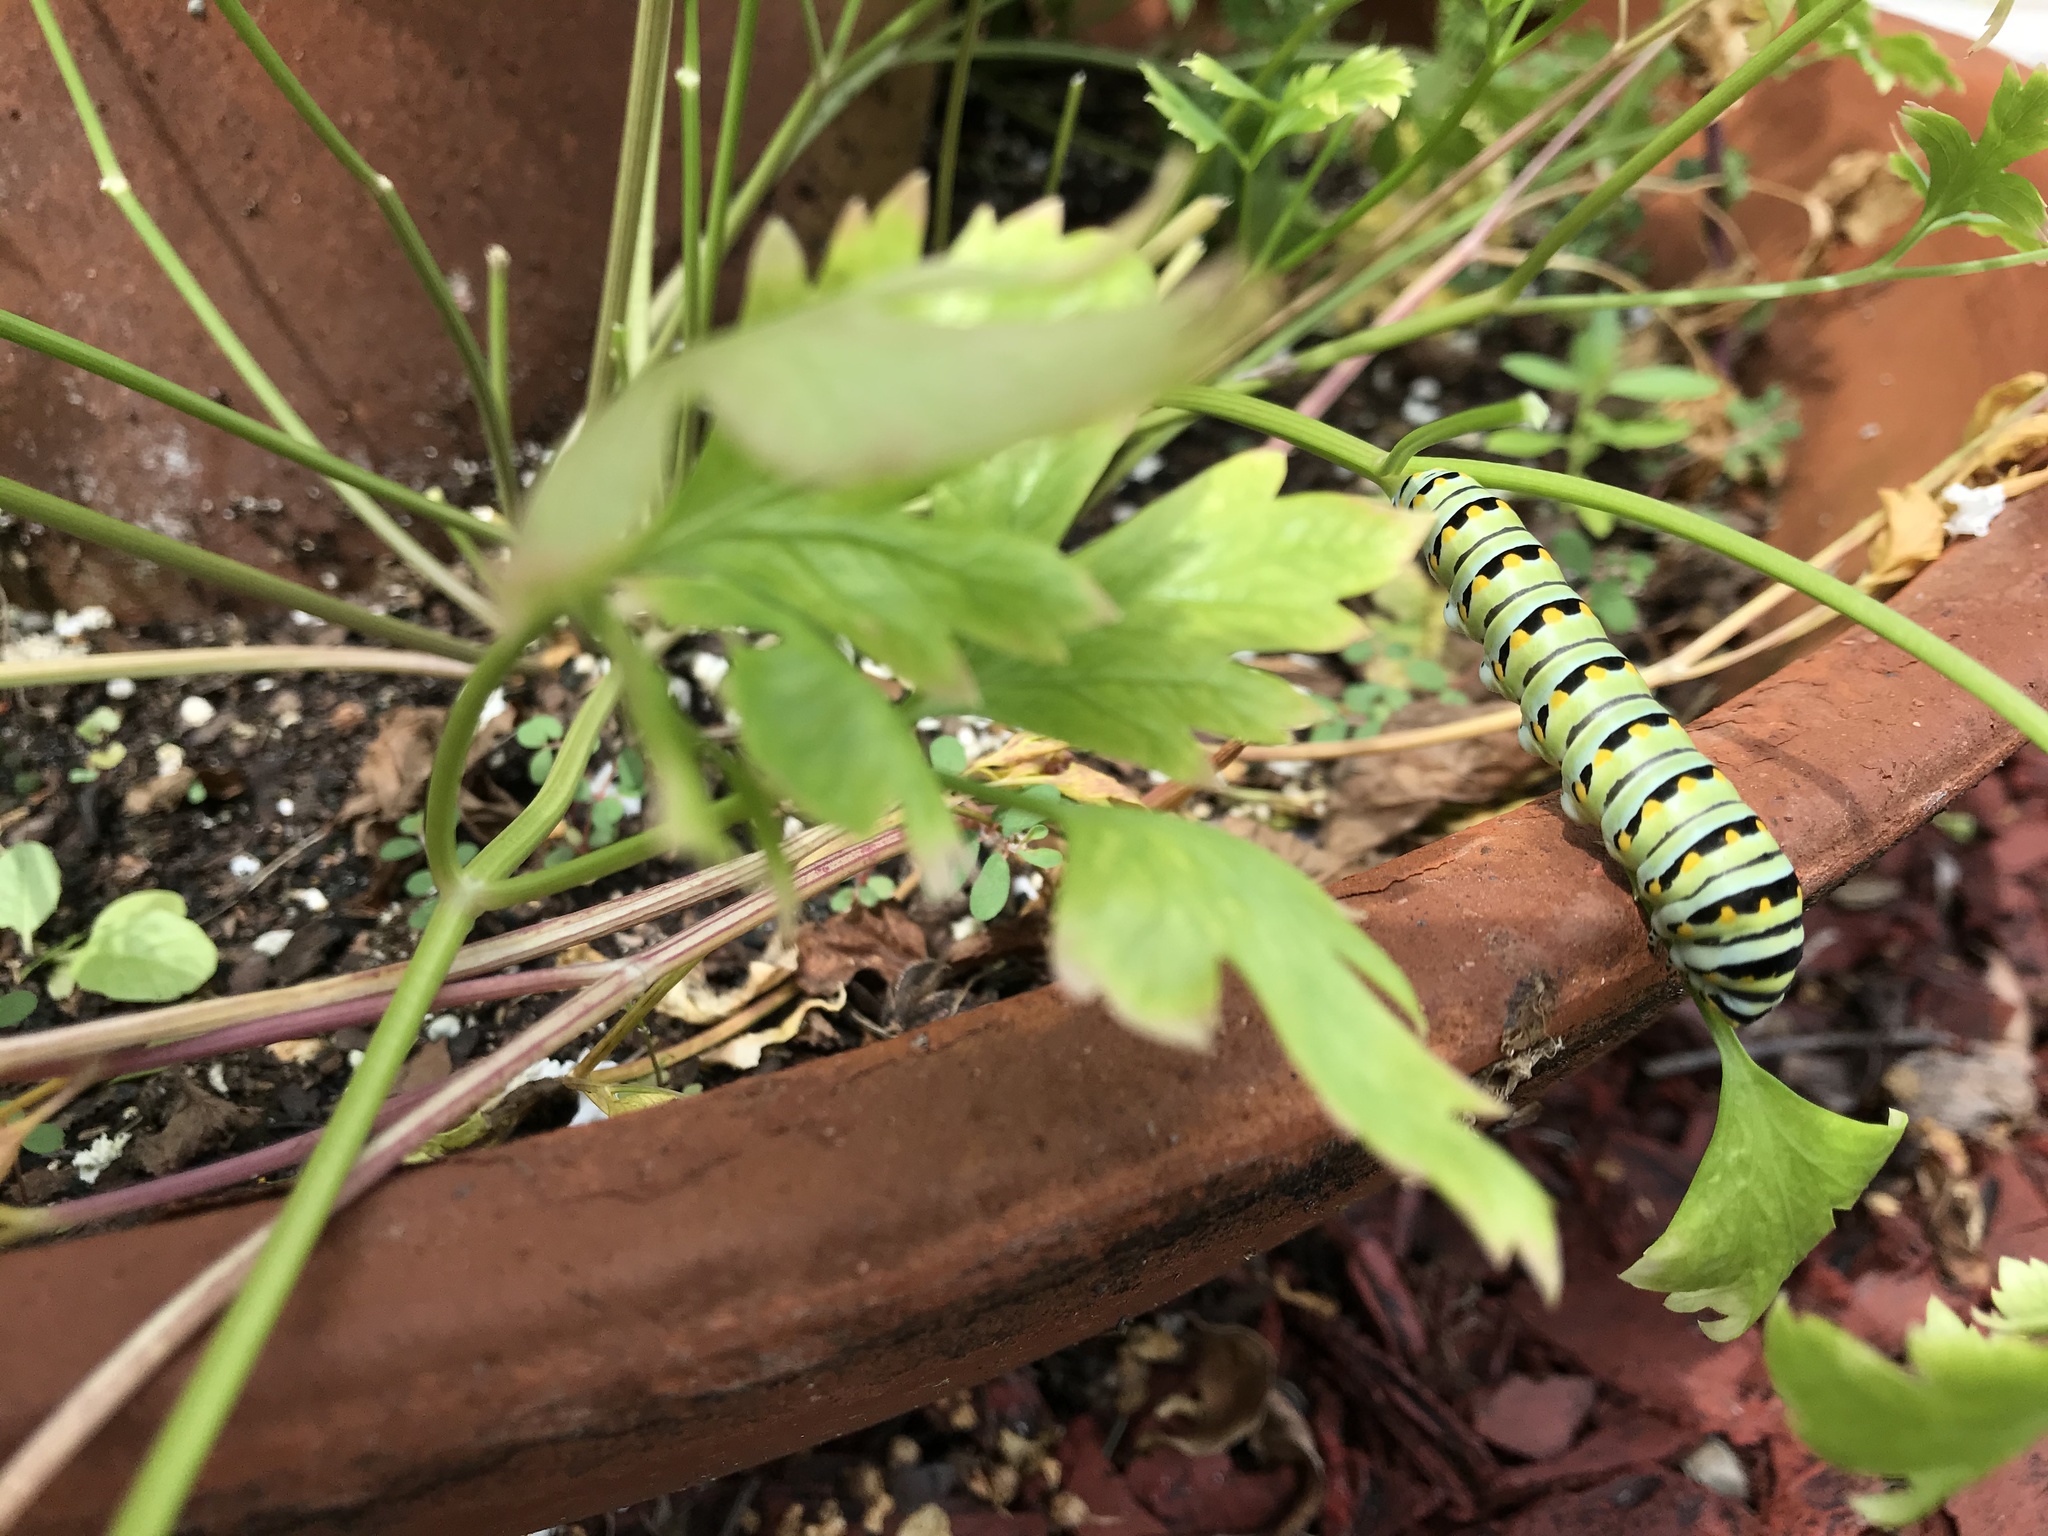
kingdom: Animalia
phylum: Arthropoda
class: Insecta
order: Lepidoptera
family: Papilionidae
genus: Papilio
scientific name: Papilio polyxenes
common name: Black swallowtail
